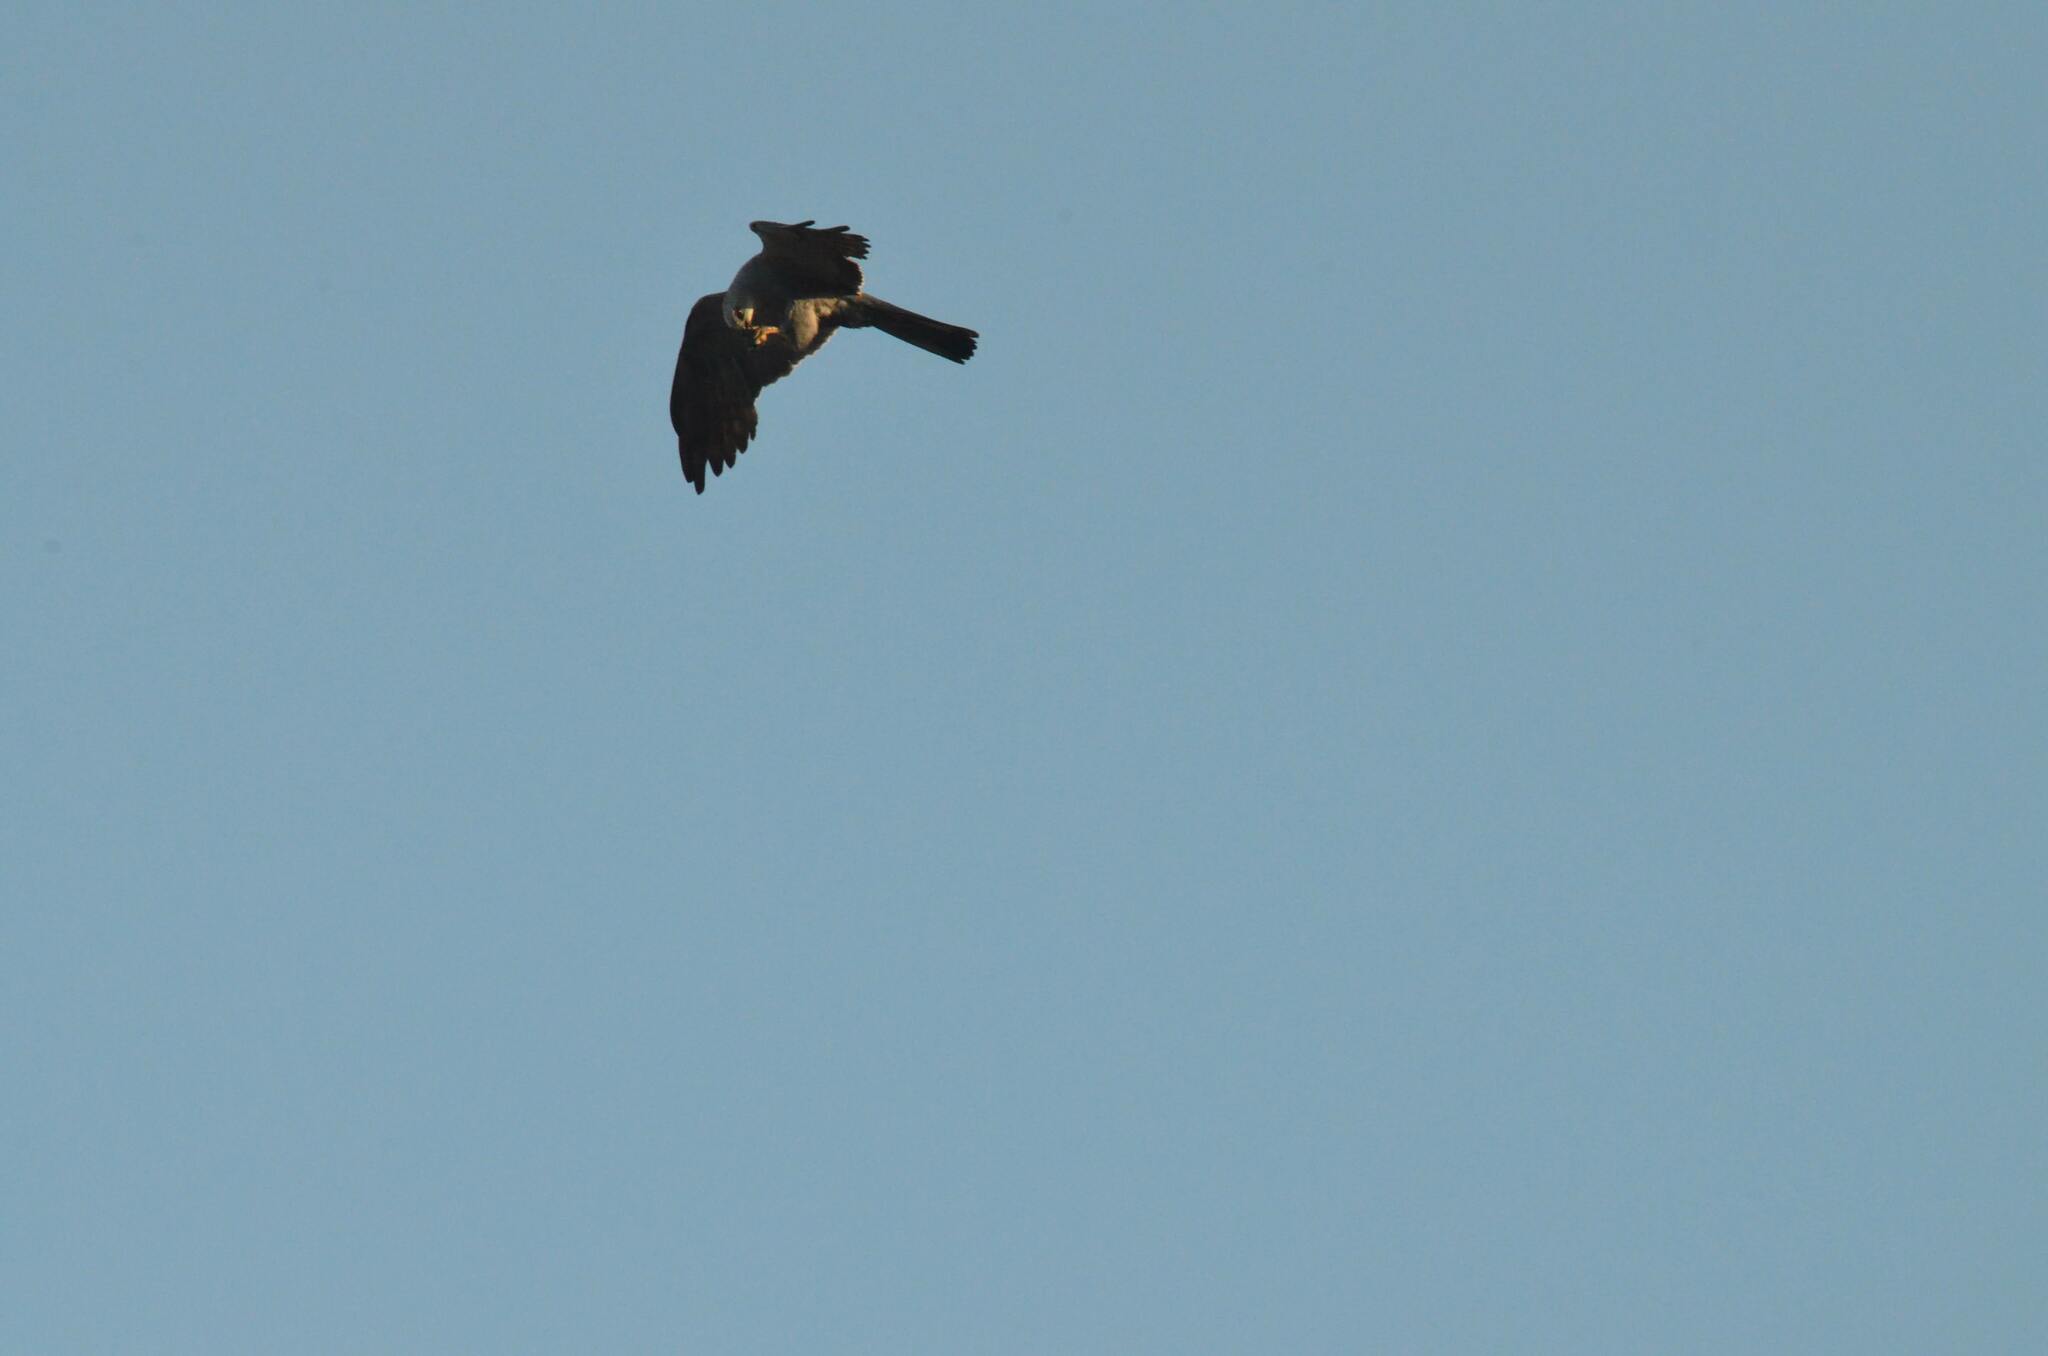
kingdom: Animalia
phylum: Chordata
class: Aves
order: Accipitriformes
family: Accipitridae
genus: Ictinia
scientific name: Ictinia mississippiensis
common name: Mississippi kite
